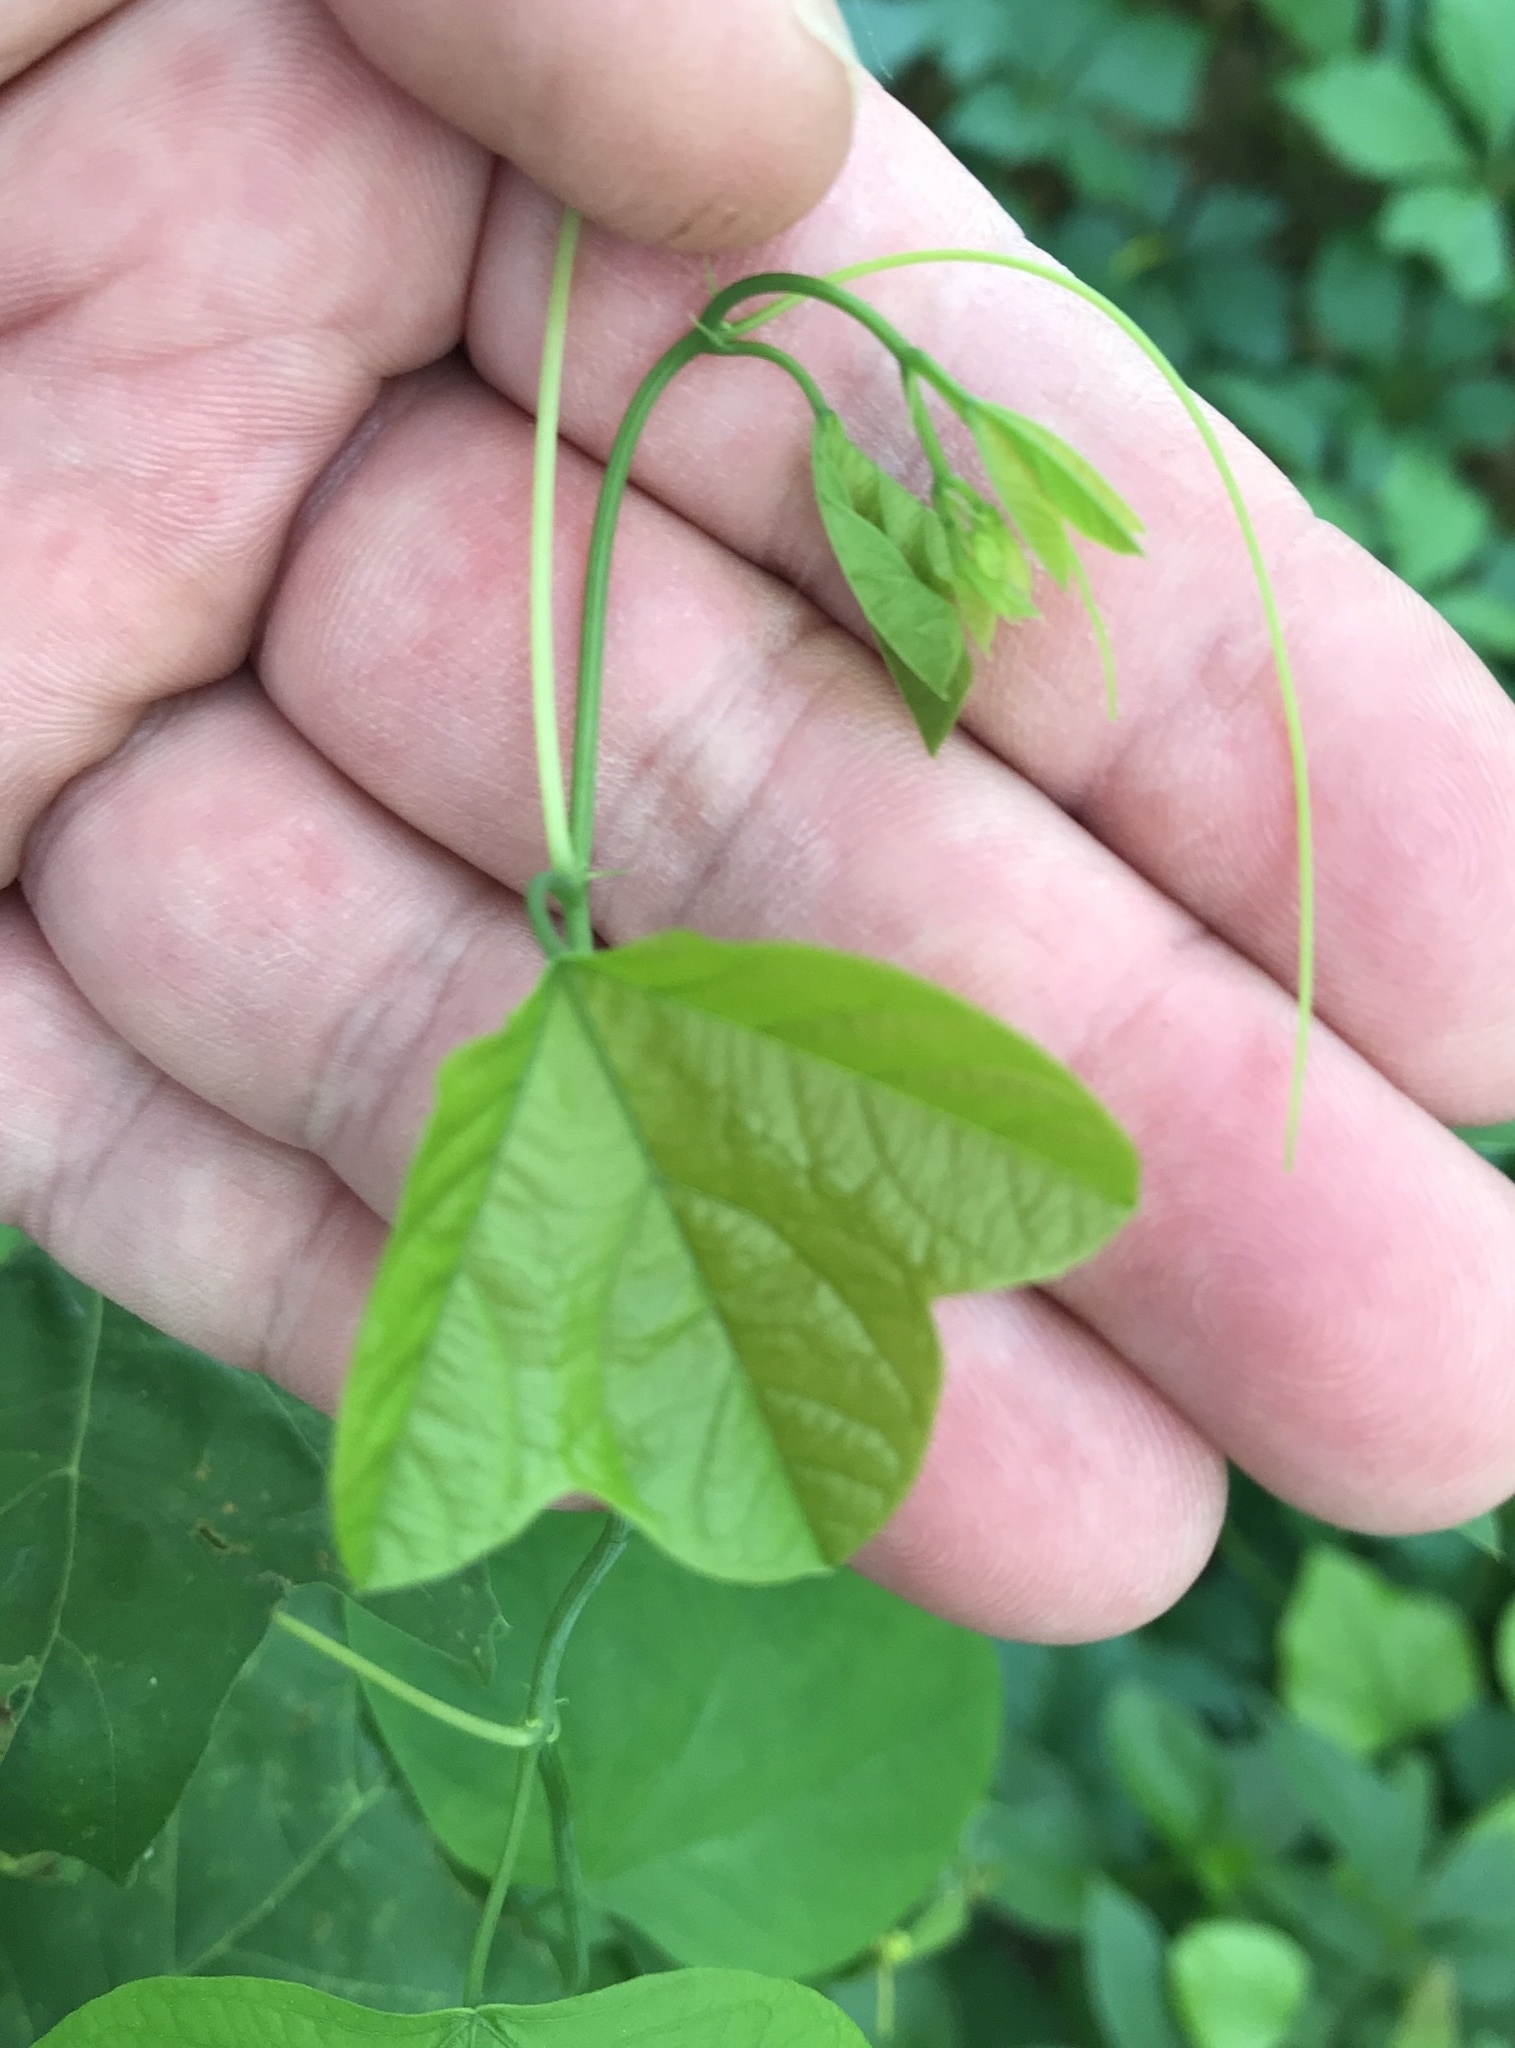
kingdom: Plantae
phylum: Tracheophyta
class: Magnoliopsida
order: Malpighiales
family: Passifloraceae
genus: Passiflora
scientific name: Passiflora lutea
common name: Yellow passionflower
